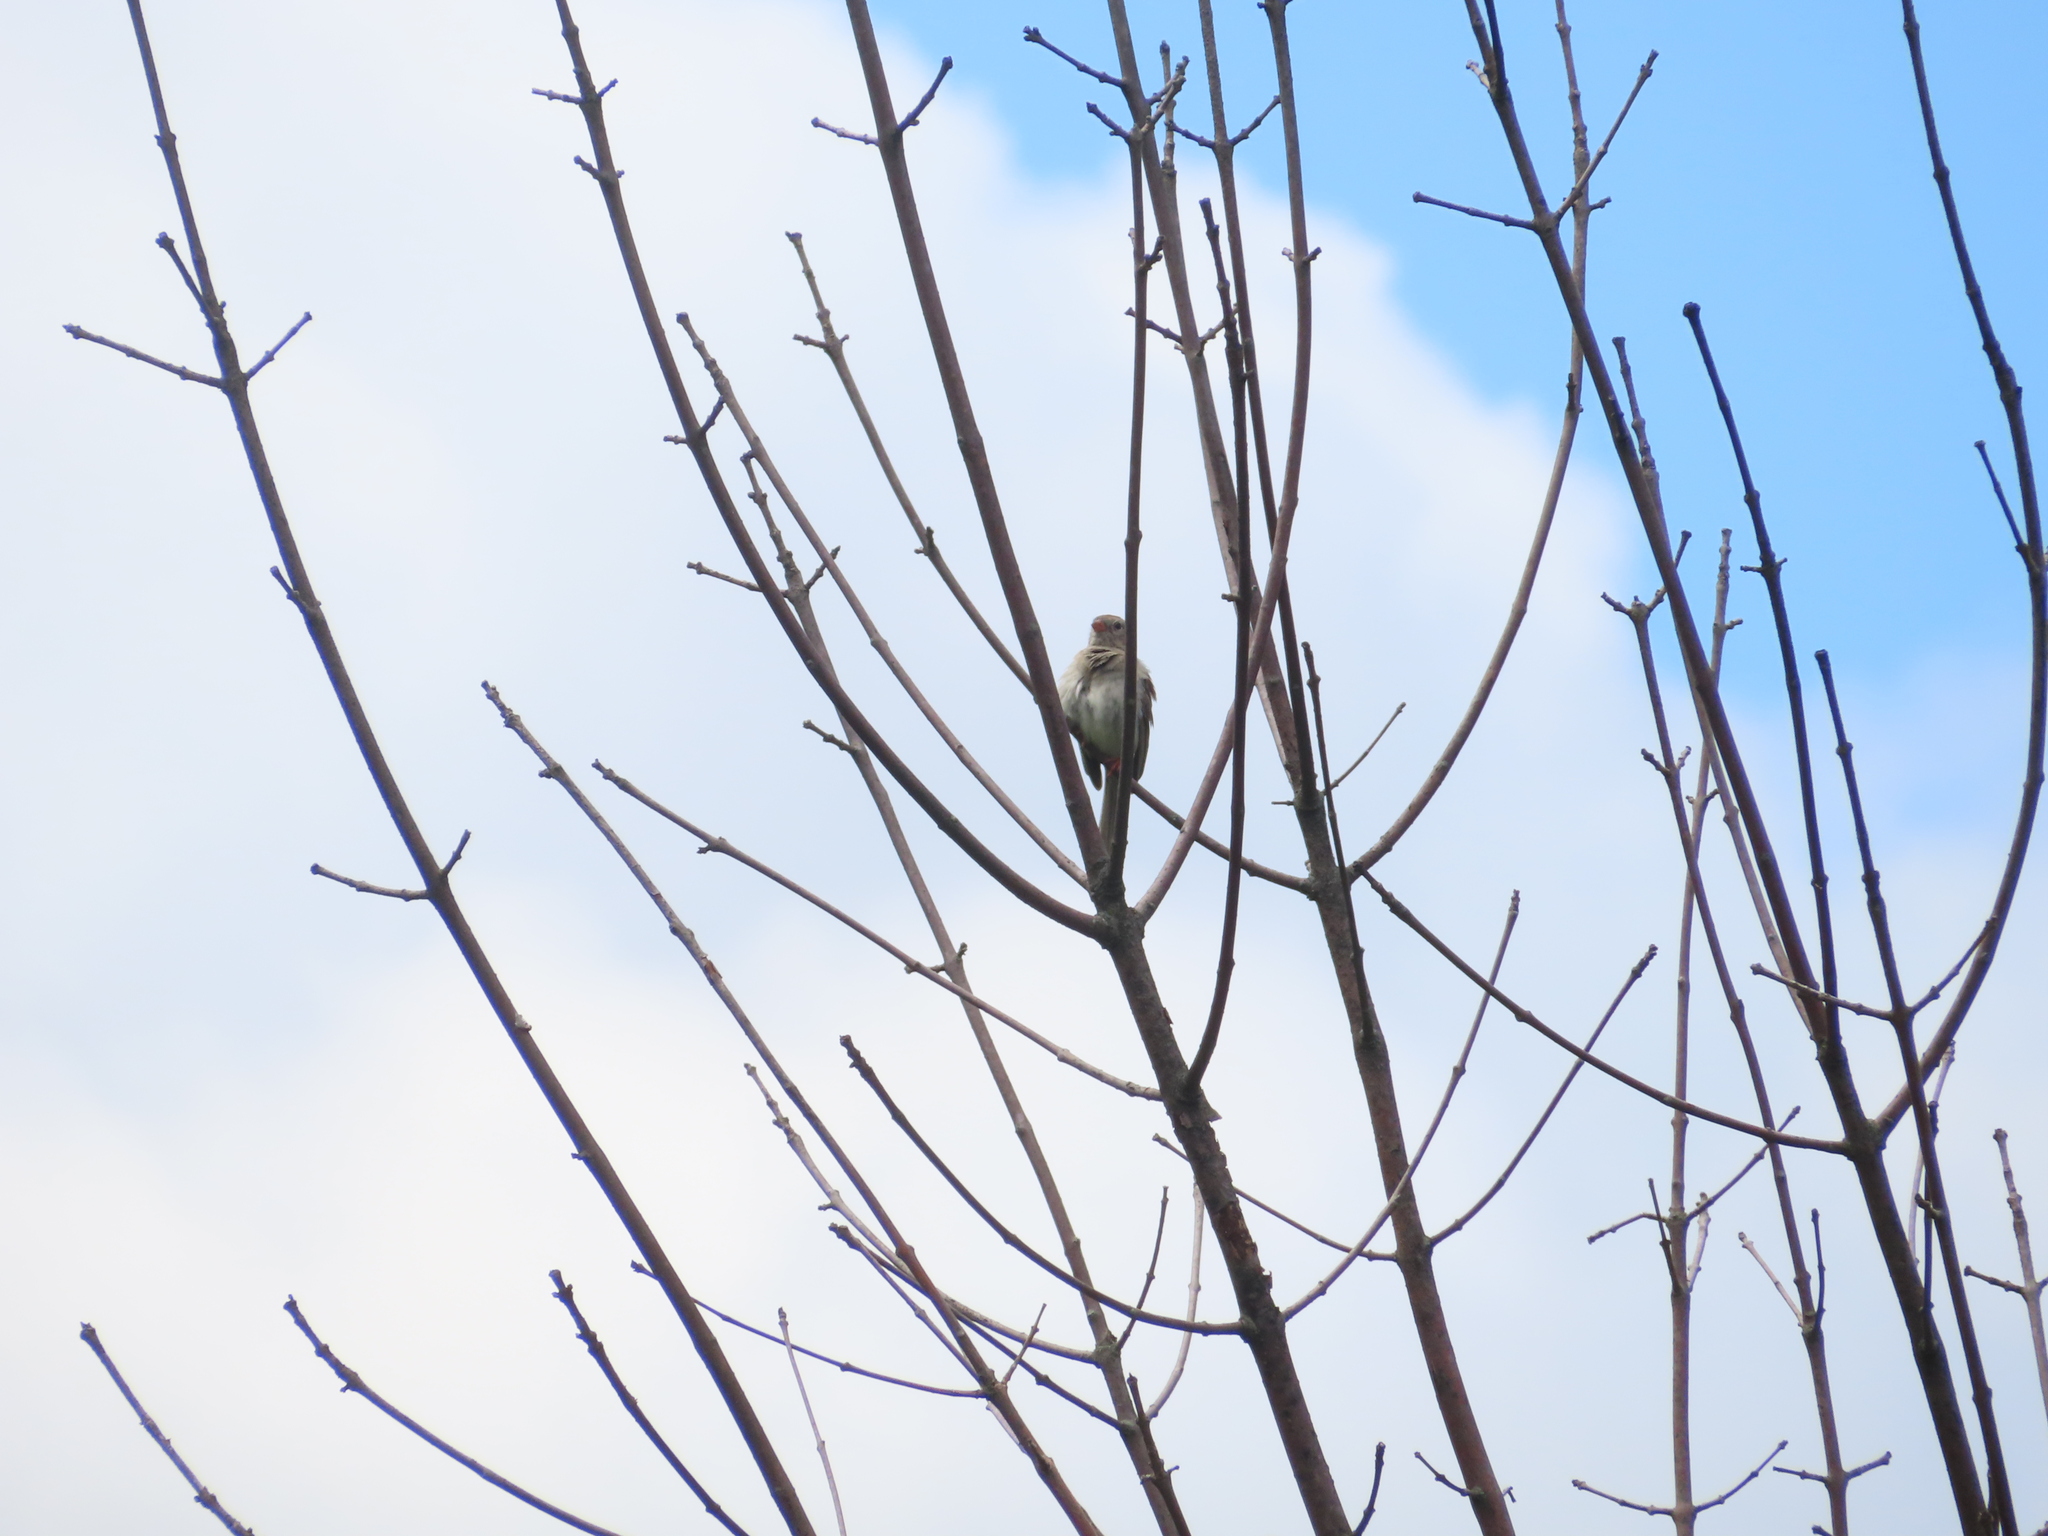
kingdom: Animalia
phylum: Chordata
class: Aves
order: Passeriformes
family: Passerellidae
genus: Spizella
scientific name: Spizella pusilla
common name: Field sparrow
